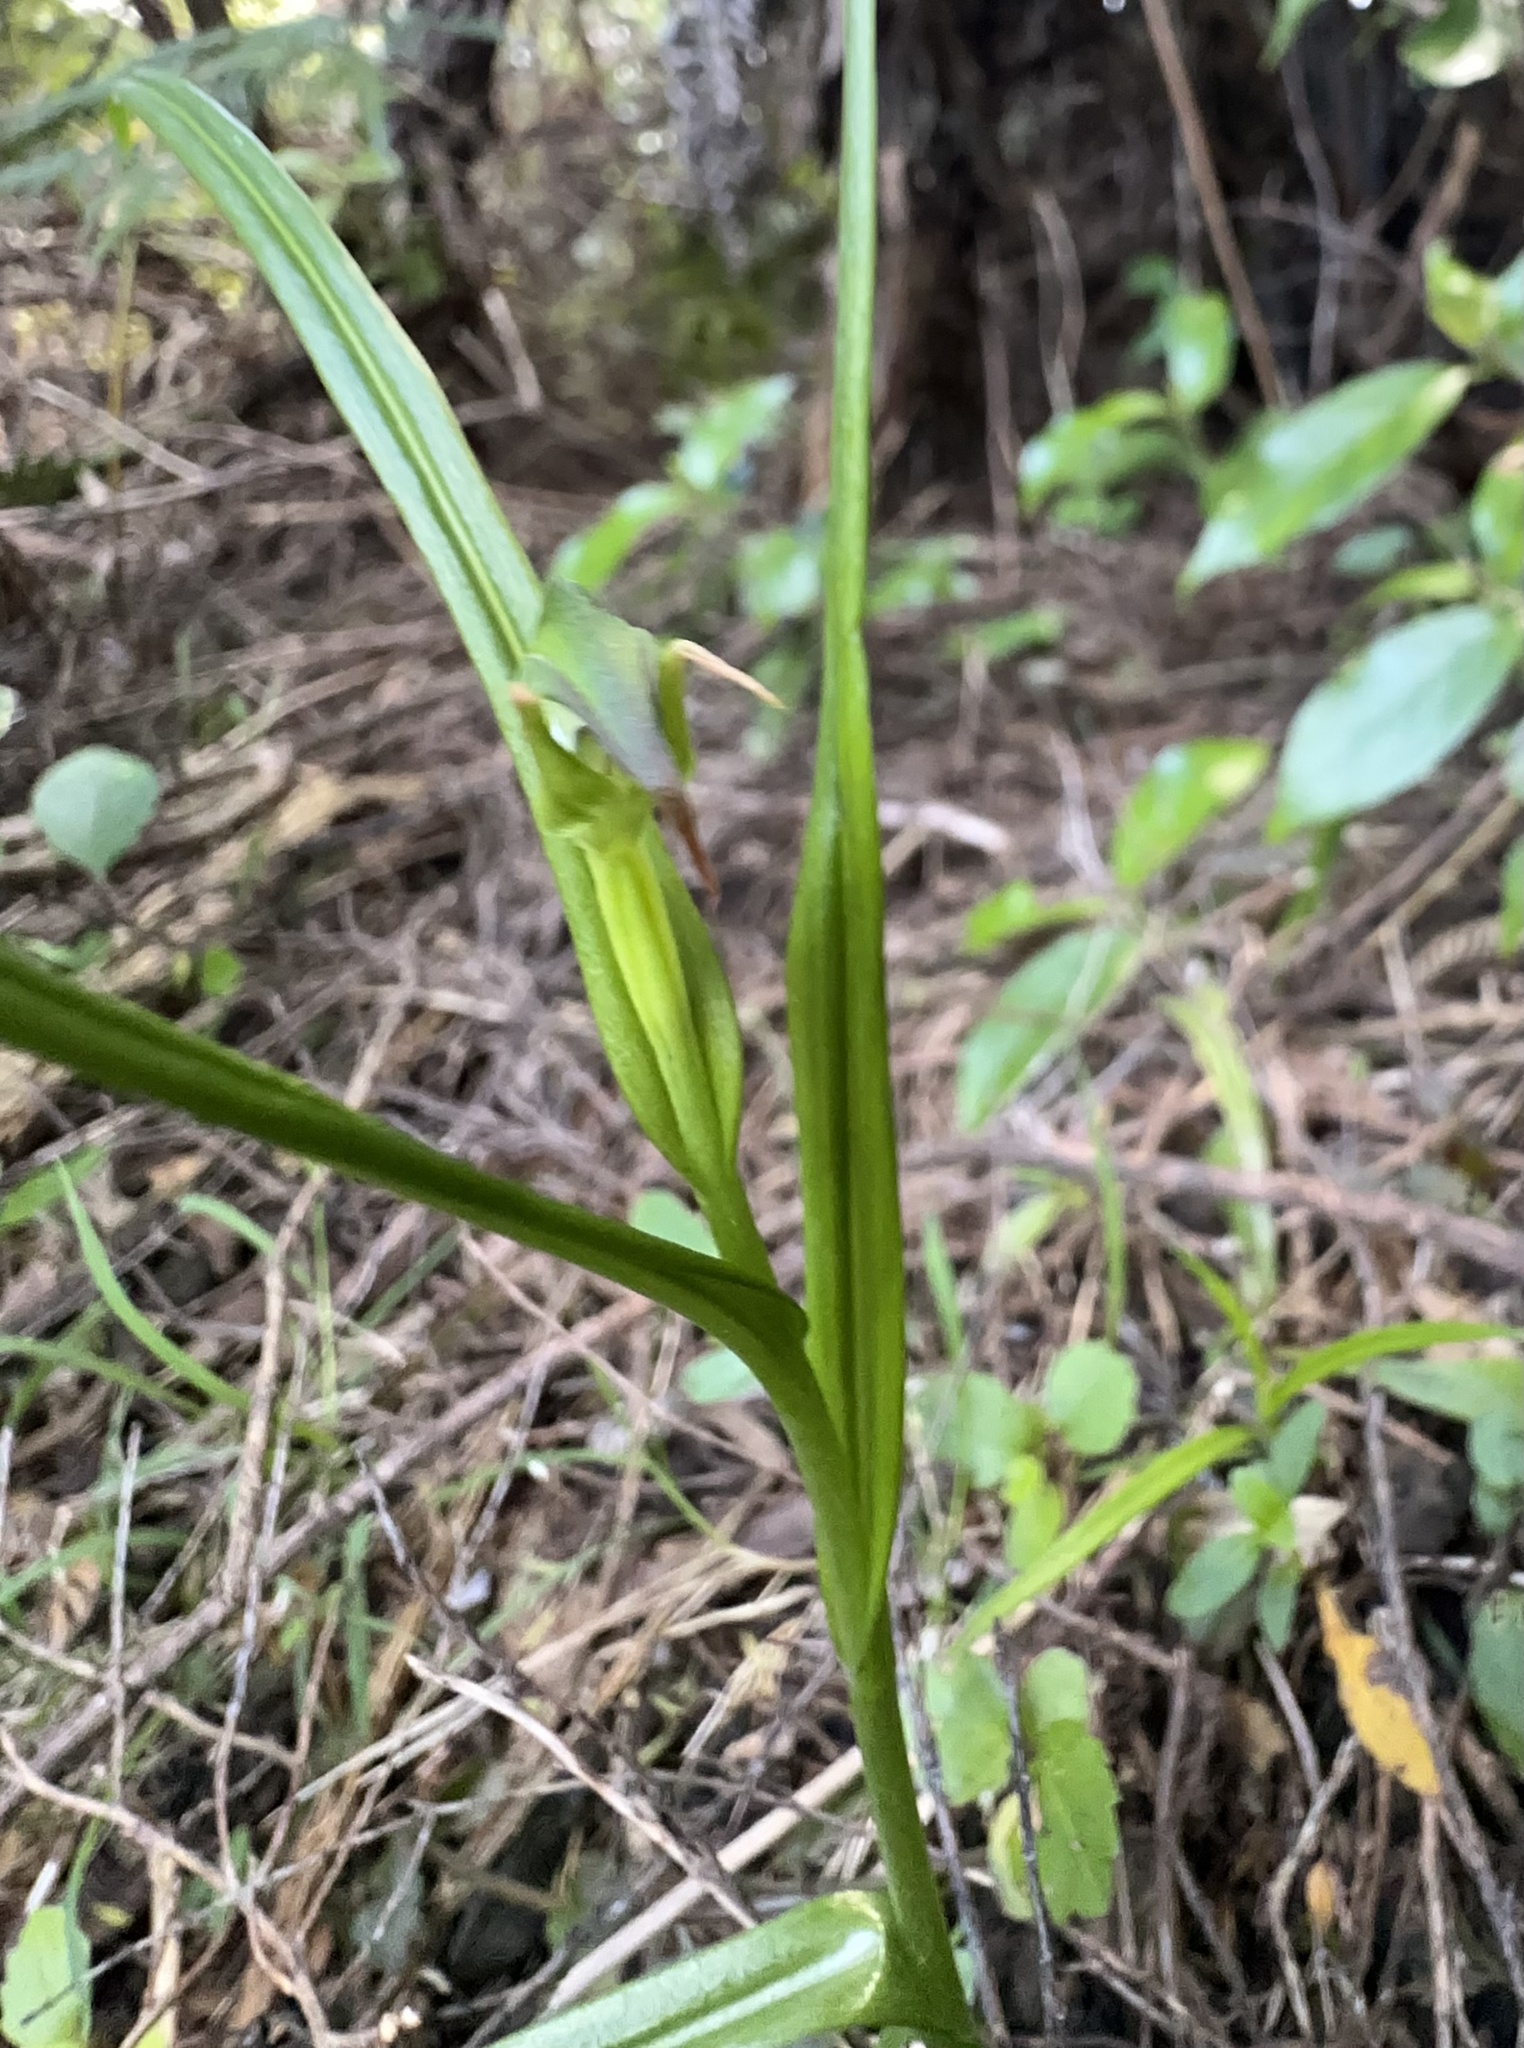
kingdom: Plantae
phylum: Tracheophyta
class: Liliopsida
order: Asparagales
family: Orchidaceae
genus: Pterostylis
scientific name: Pterostylis graminea
